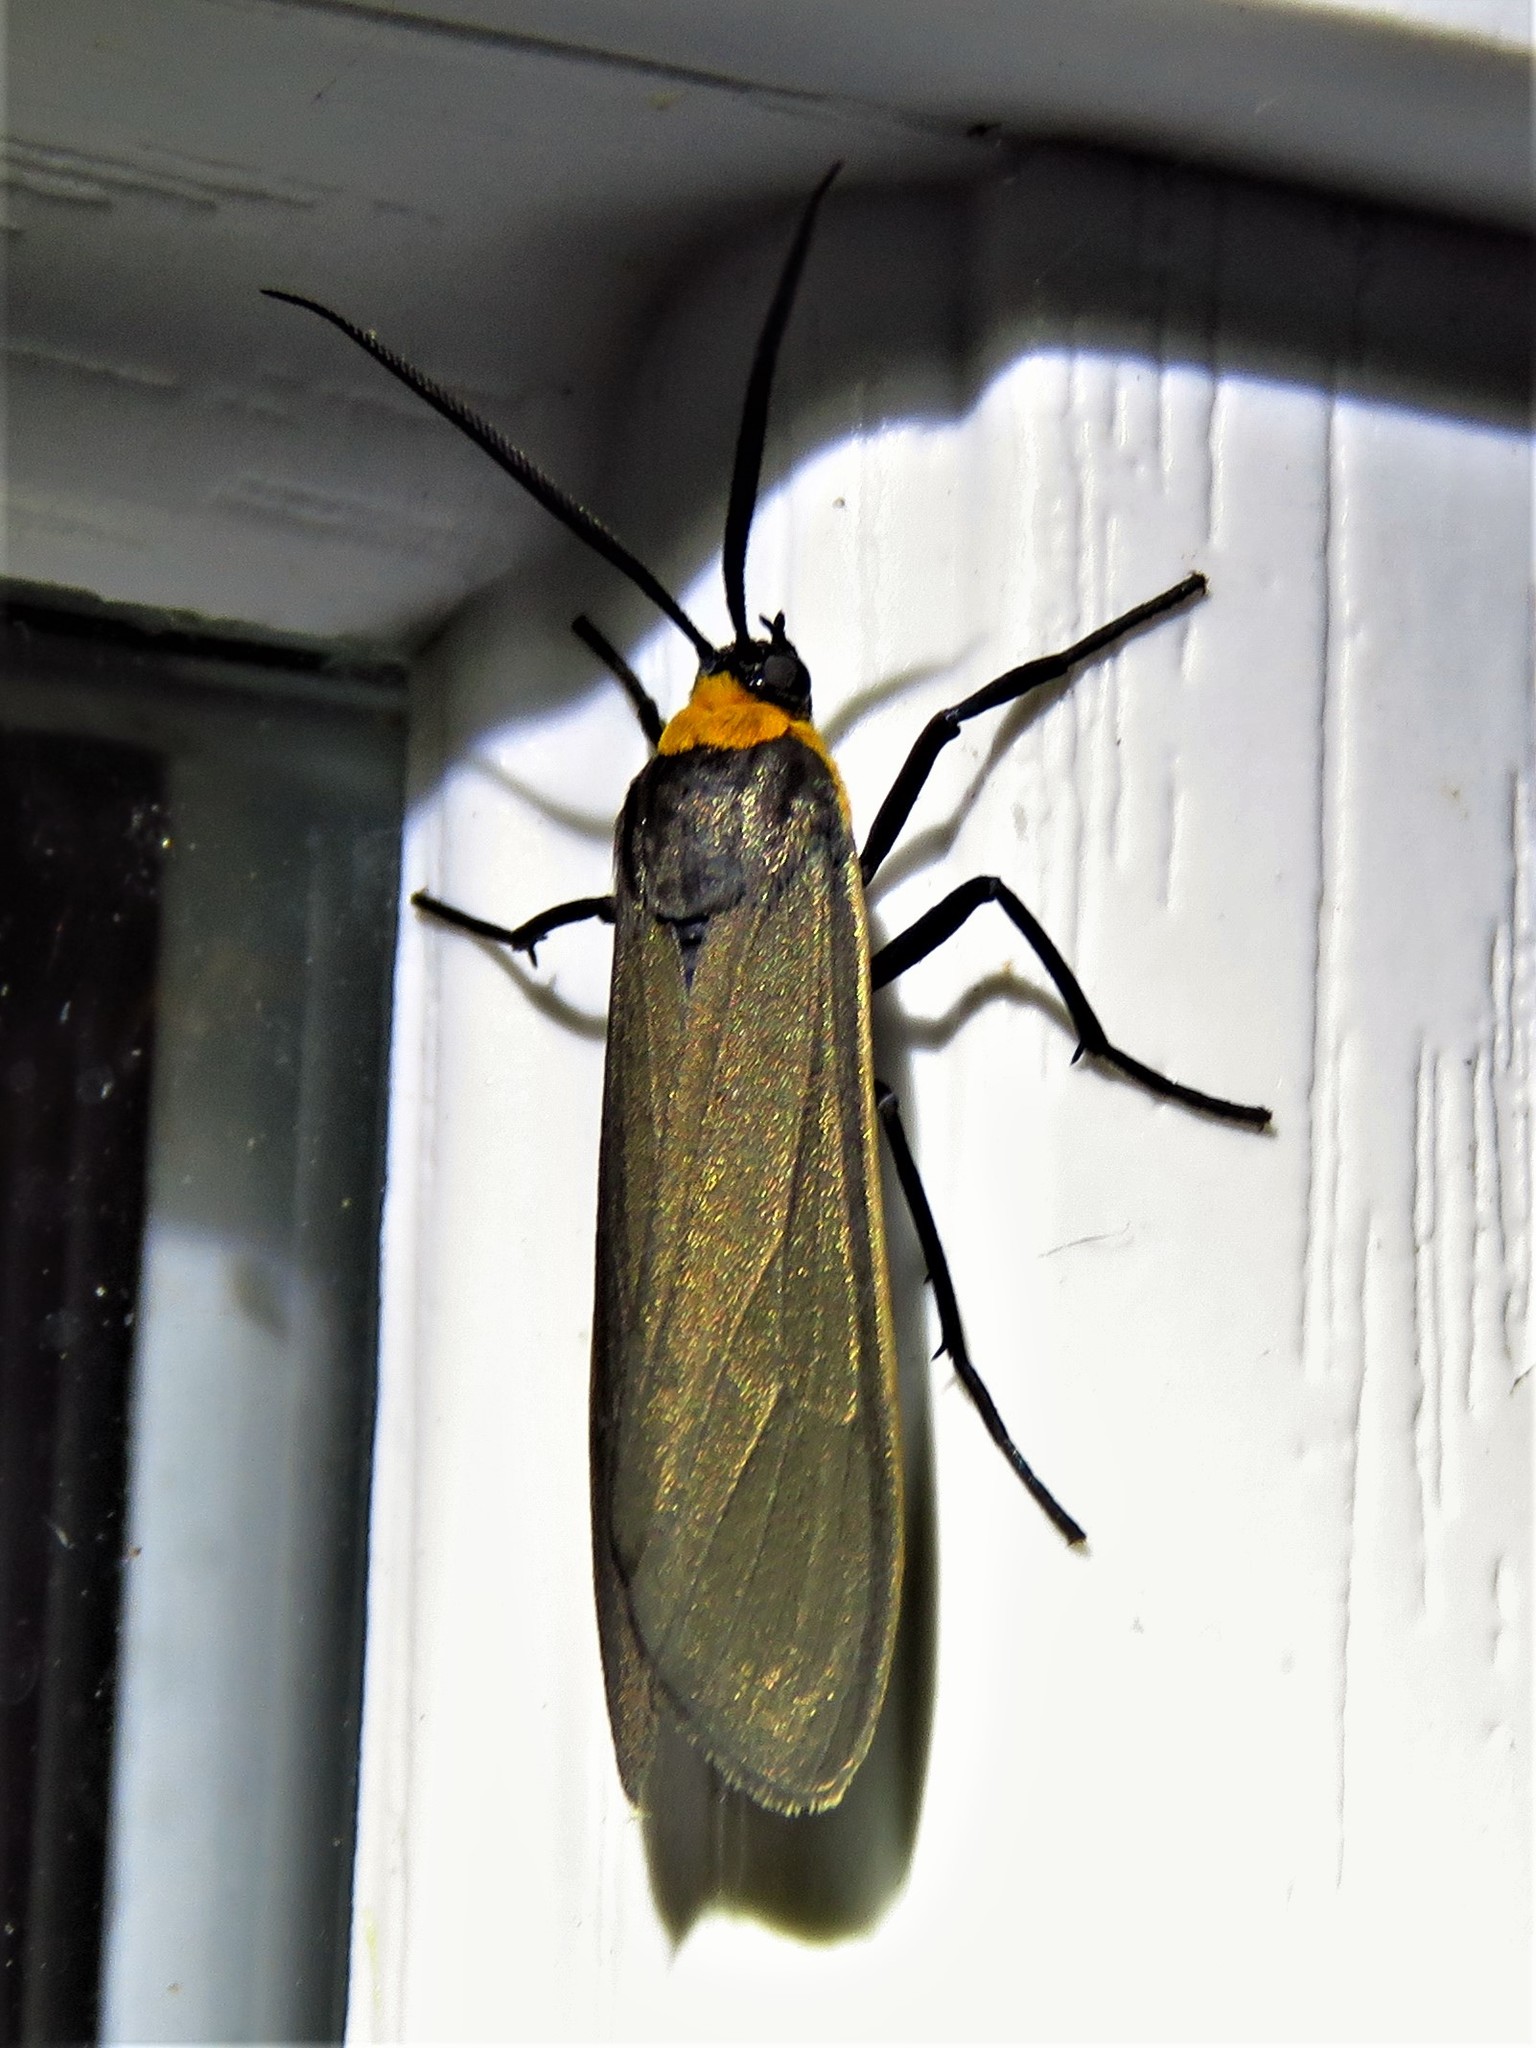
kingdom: Animalia
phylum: Arthropoda
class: Insecta
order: Lepidoptera
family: Erebidae
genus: Cisseps
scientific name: Cisseps fulvicollis
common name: Yellow-collared scape moth
